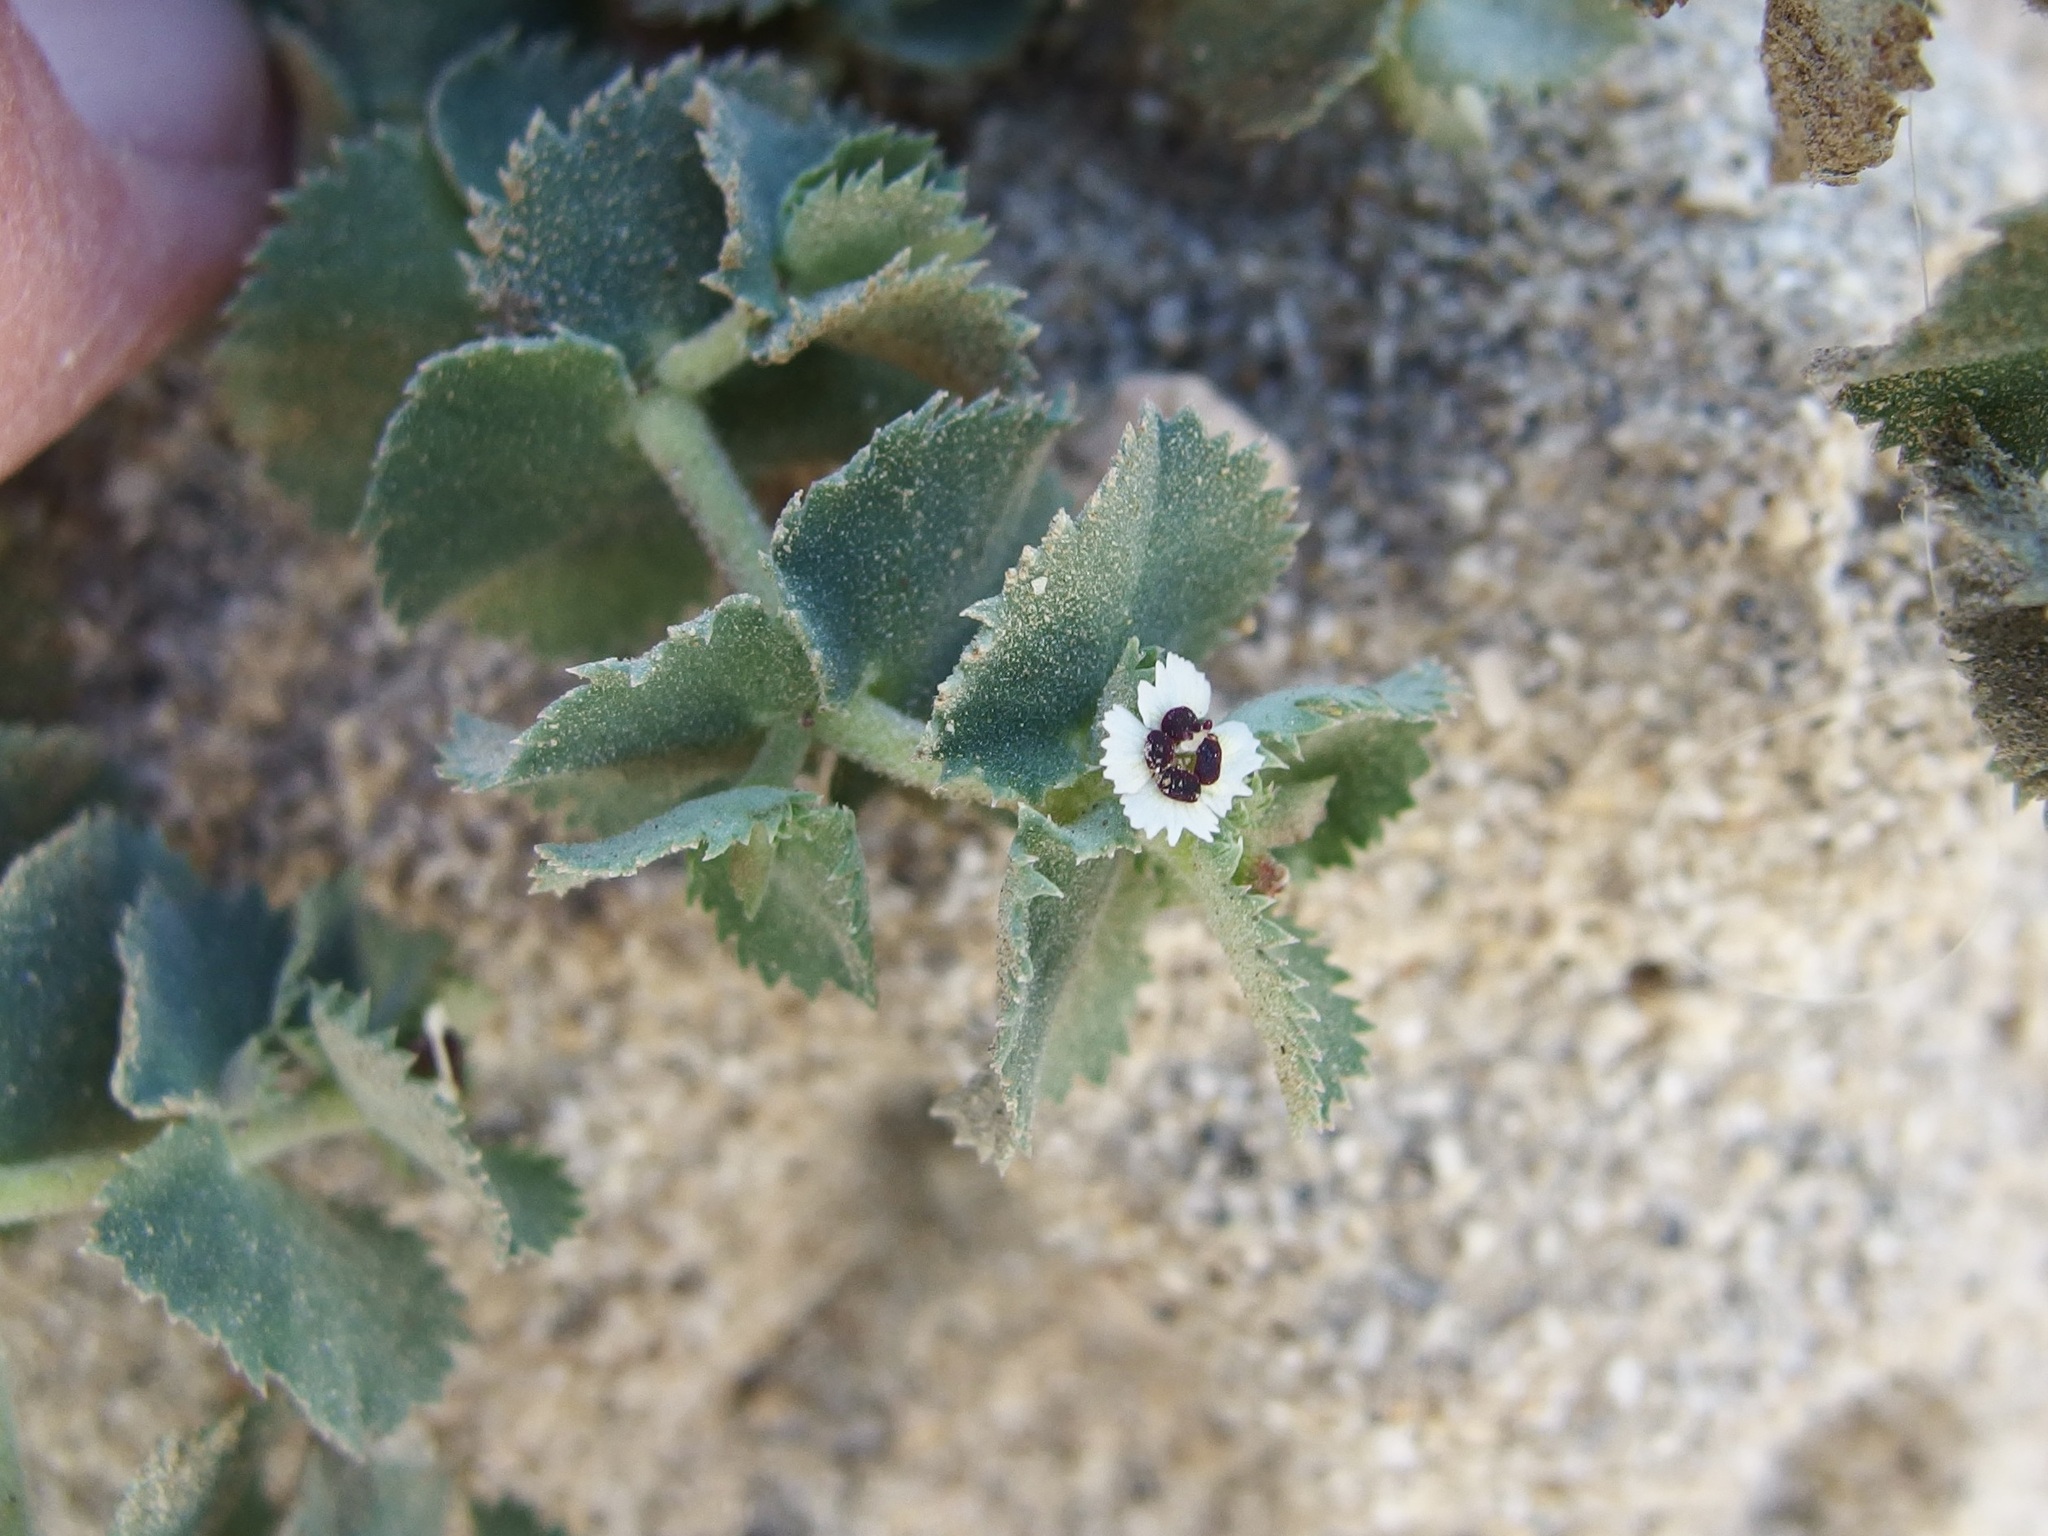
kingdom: Plantae
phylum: Tracheophyta
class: Magnoliopsida
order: Malpighiales
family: Euphorbiaceae
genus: Euphorbia
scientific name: Euphorbia leucophylla
